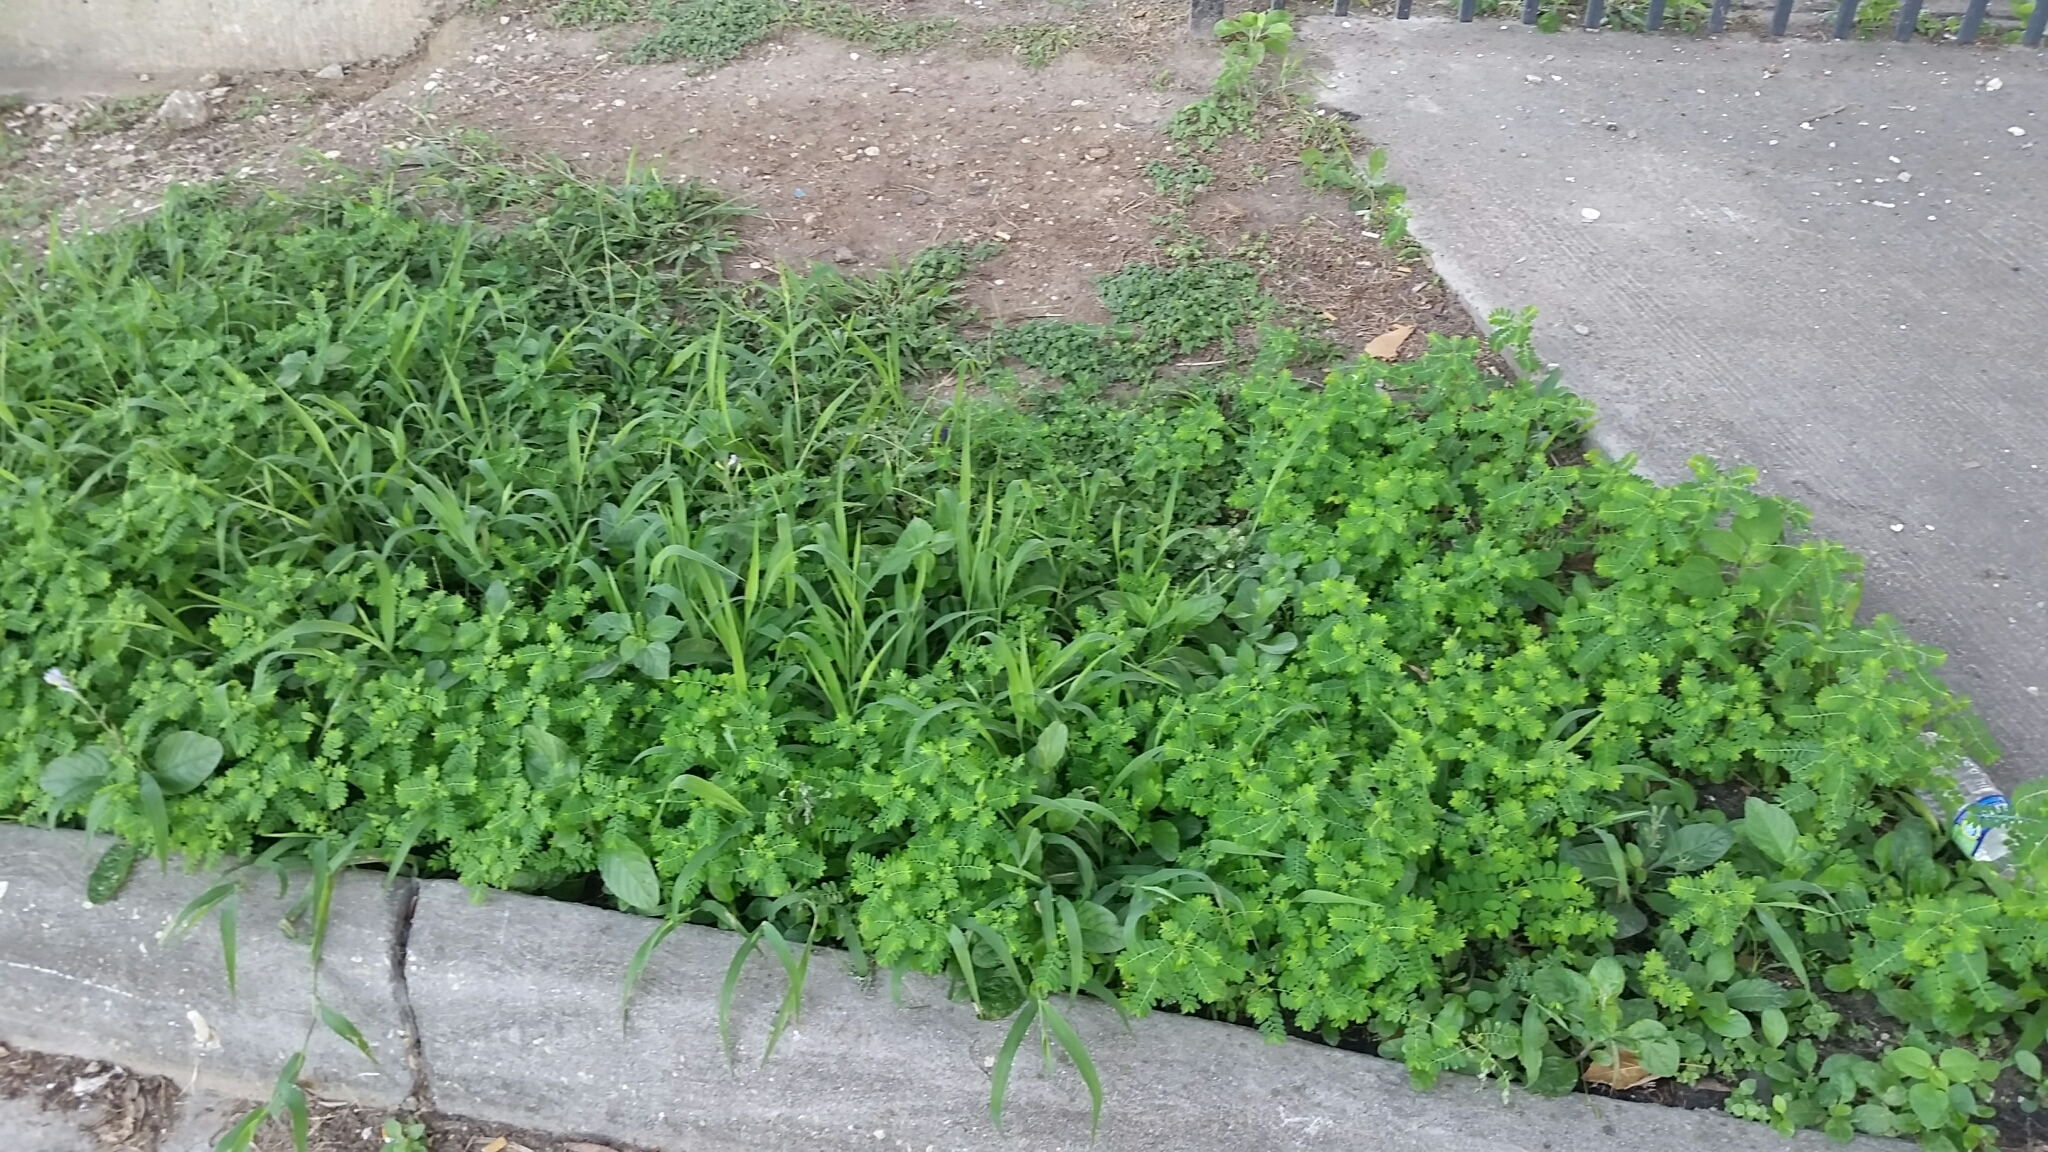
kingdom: Plantae
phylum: Tracheophyta
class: Magnoliopsida
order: Malpighiales
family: Phyllanthaceae
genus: Phyllanthus
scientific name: Phyllanthus fraternus
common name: Gulf leaf-flower
